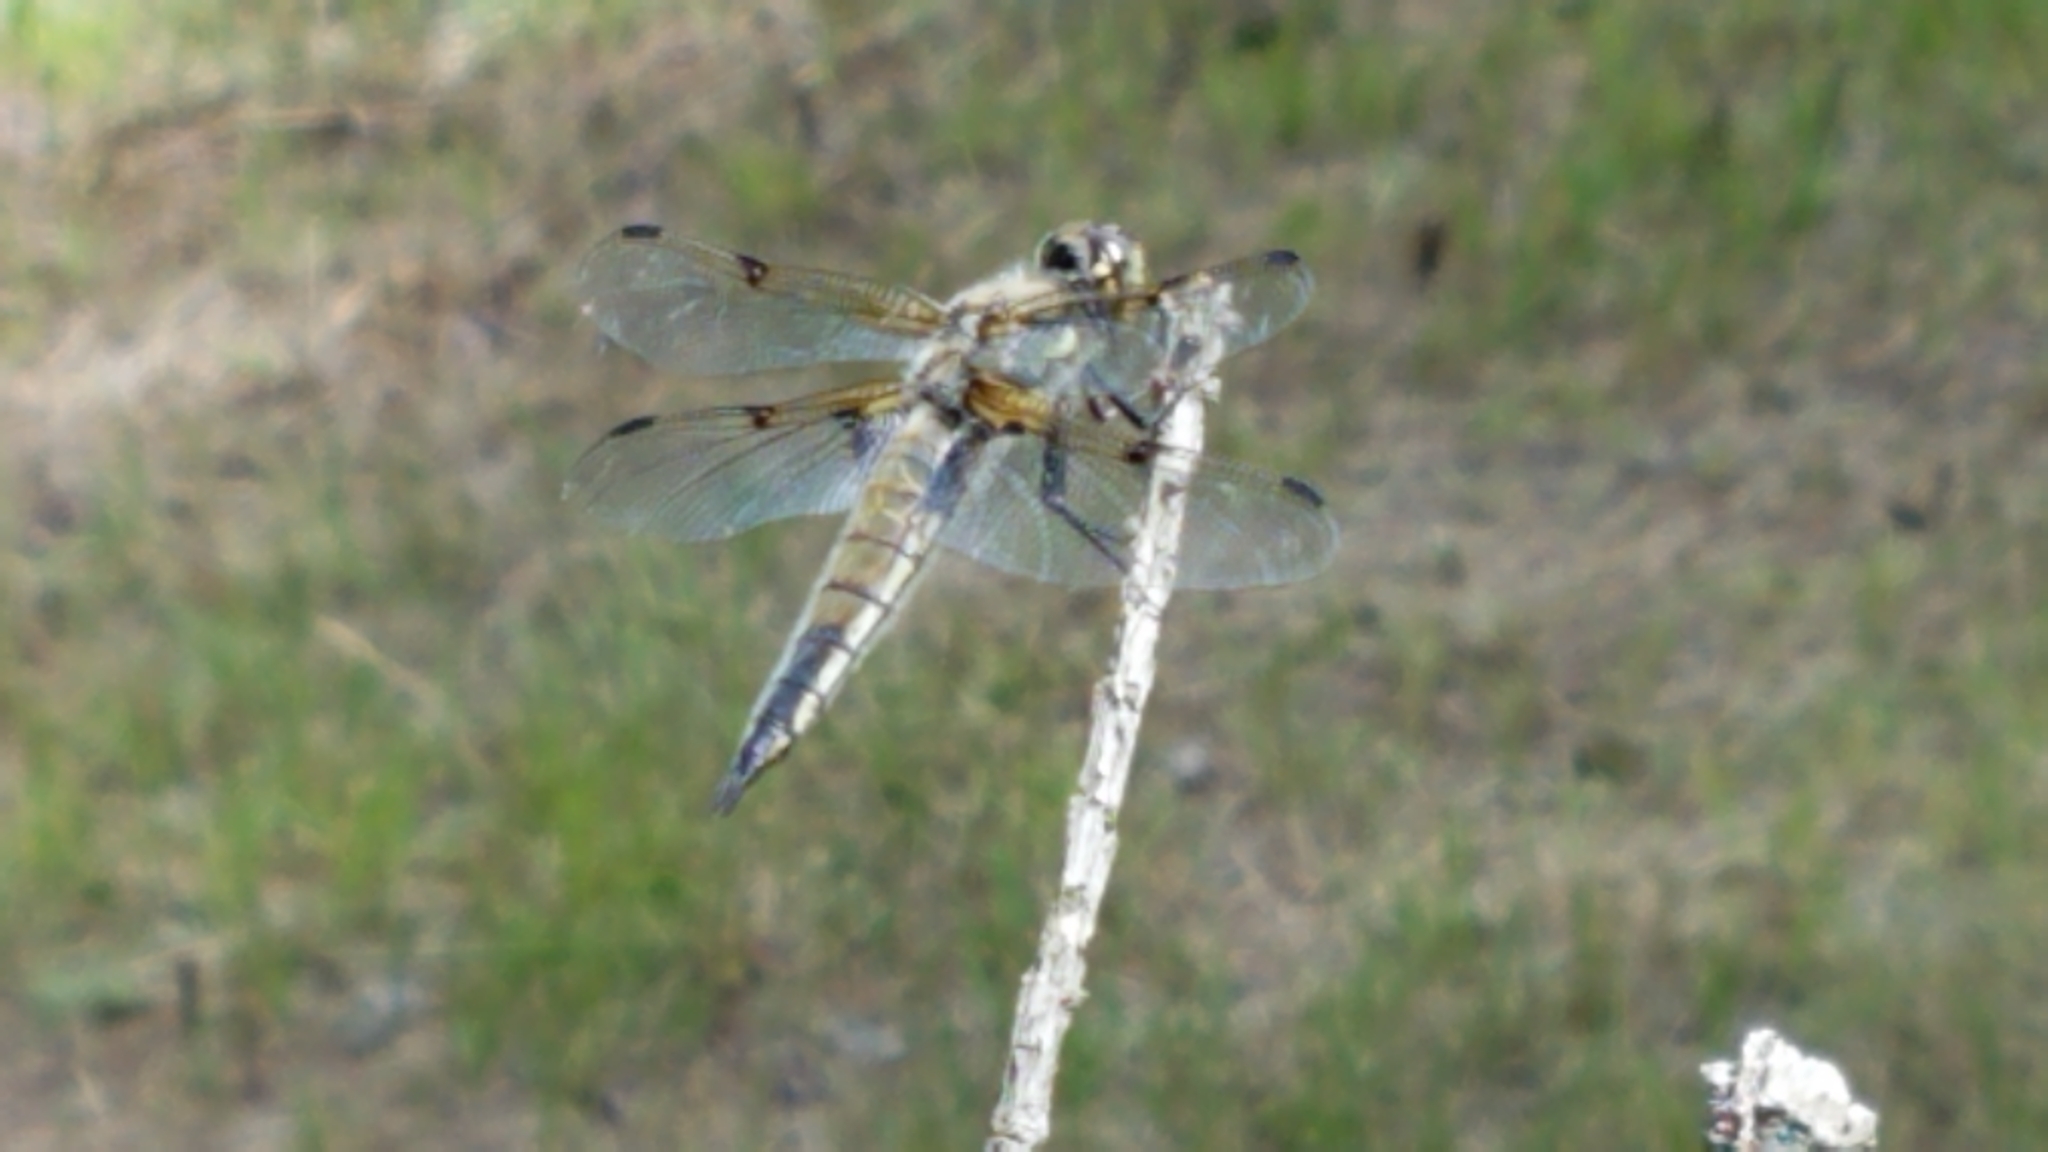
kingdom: Animalia
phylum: Arthropoda
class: Insecta
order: Odonata
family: Libellulidae
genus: Libellula
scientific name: Libellula quadrimaculata
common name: Four-spotted chaser
